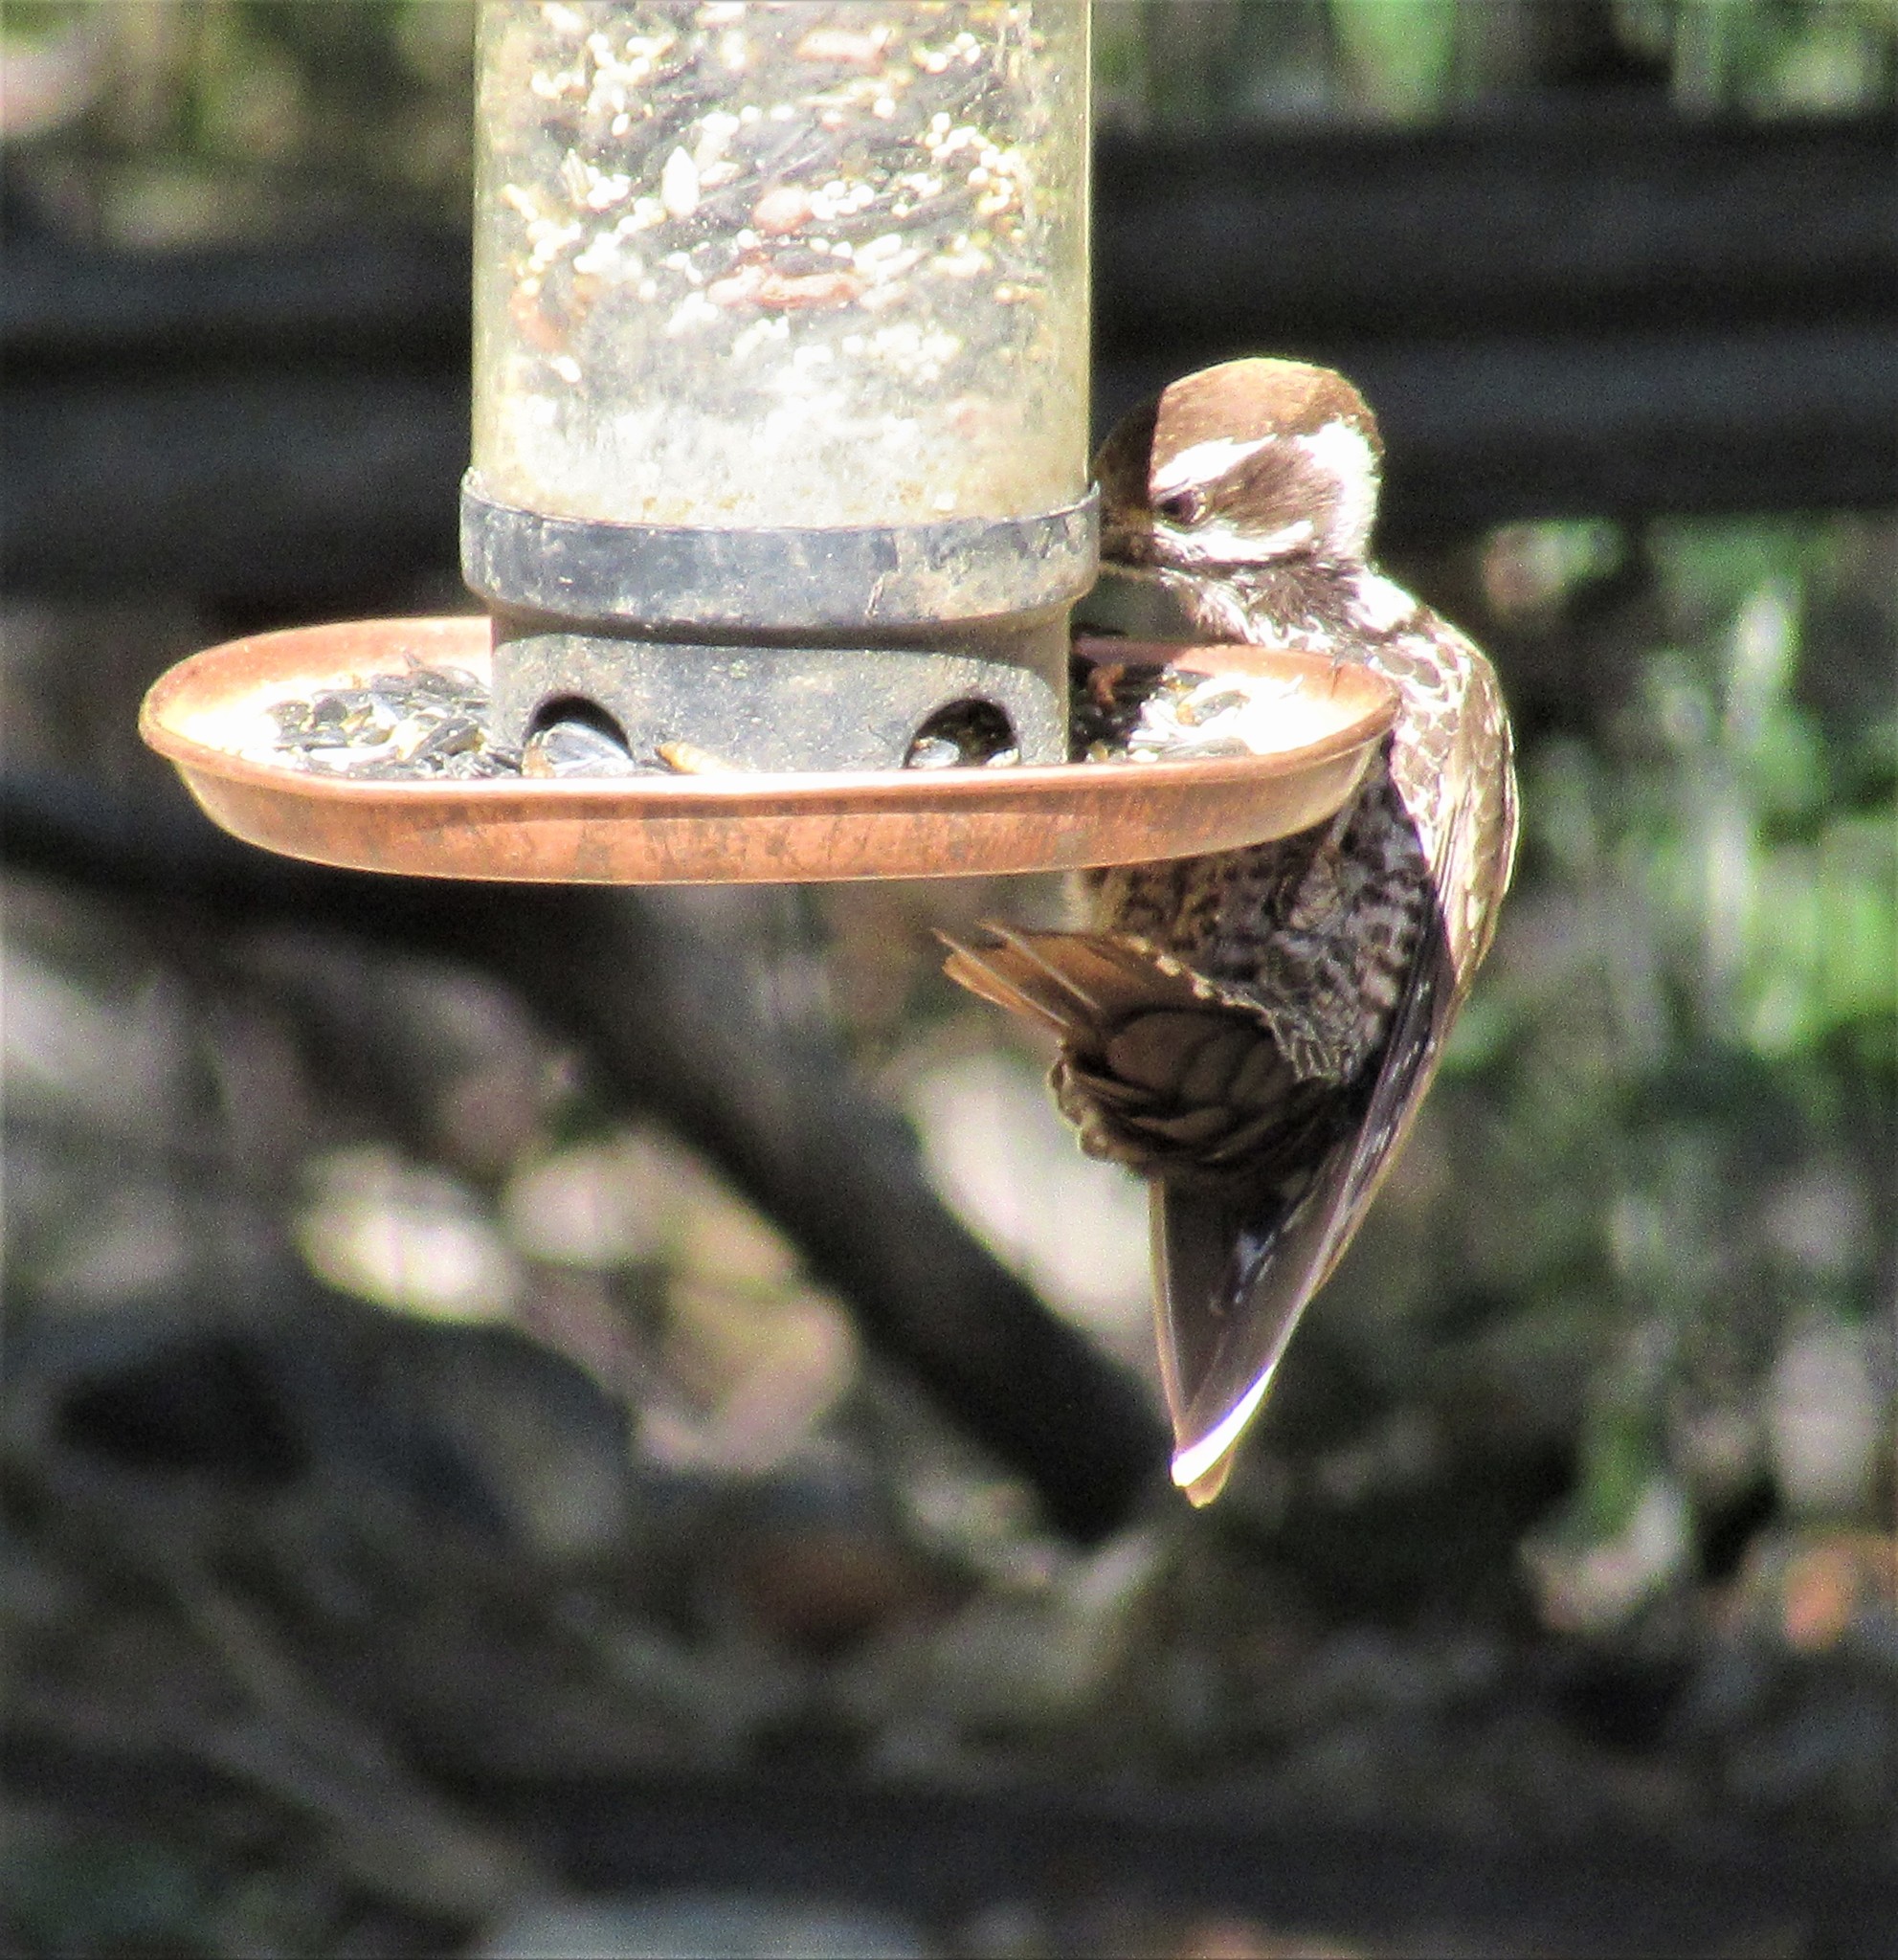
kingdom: Animalia
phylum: Chordata
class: Aves
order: Piciformes
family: Picidae
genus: Leuconotopicus
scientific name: Leuconotopicus arizonae
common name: Arizona woodpecker
